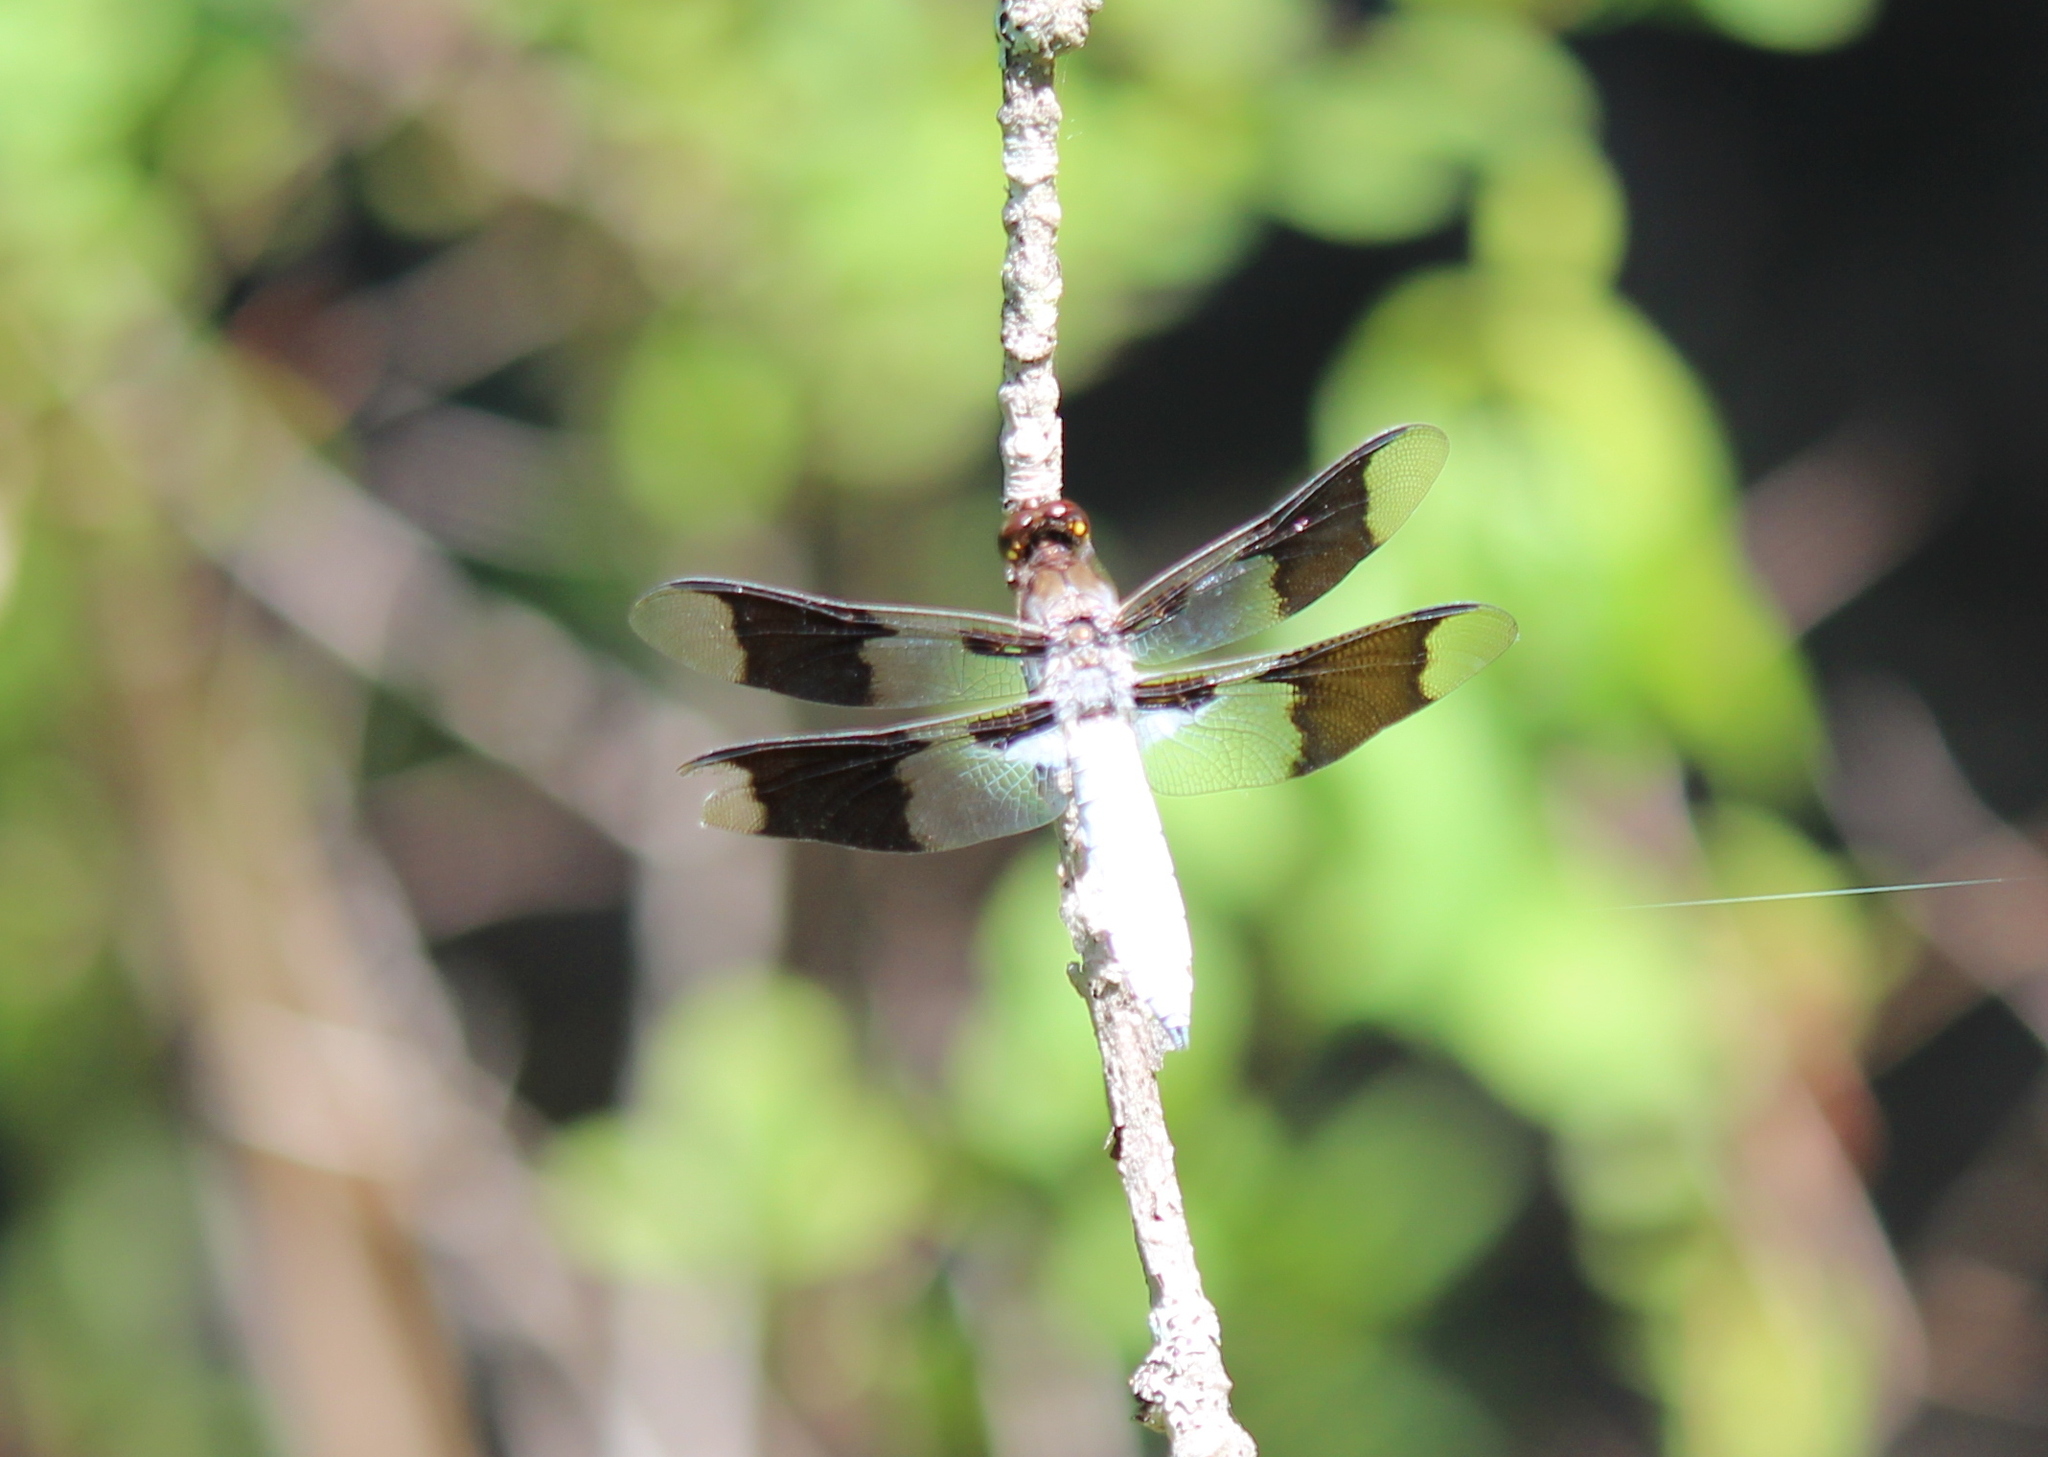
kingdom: Animalia
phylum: Arthropoda
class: Insecta
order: Odonata
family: Libellulidae
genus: Plathemis
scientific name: Plathemis lydia
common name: Common whitetail
